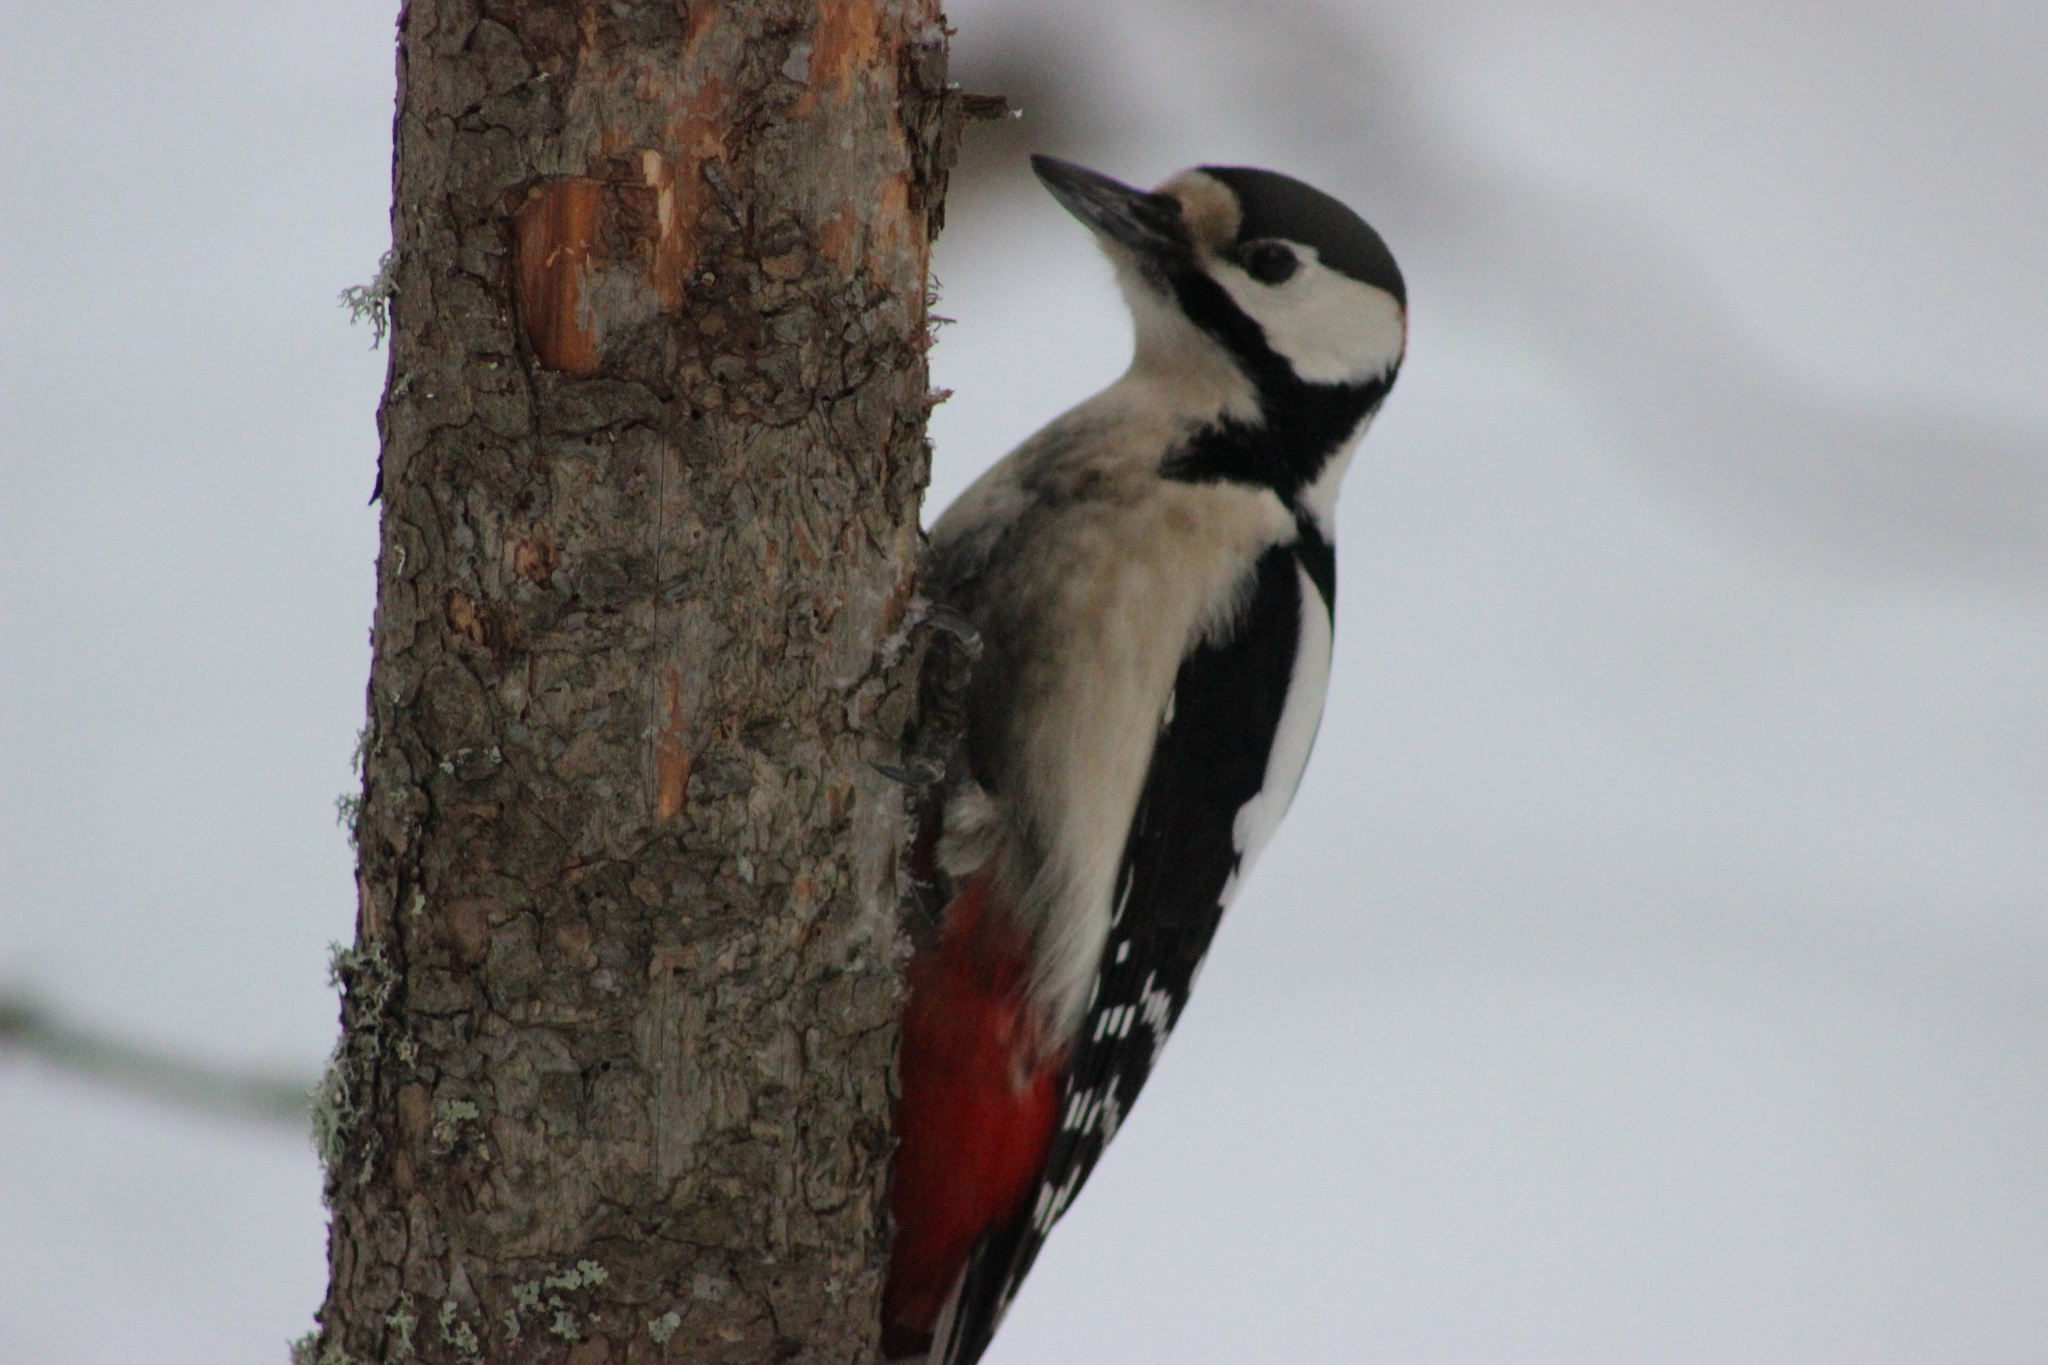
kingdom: Animalia
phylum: Chordata
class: Aves
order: Piciformes
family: Picidae
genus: Dendrocopos
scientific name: Dendrocopos major
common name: Great spotted woodpecker
